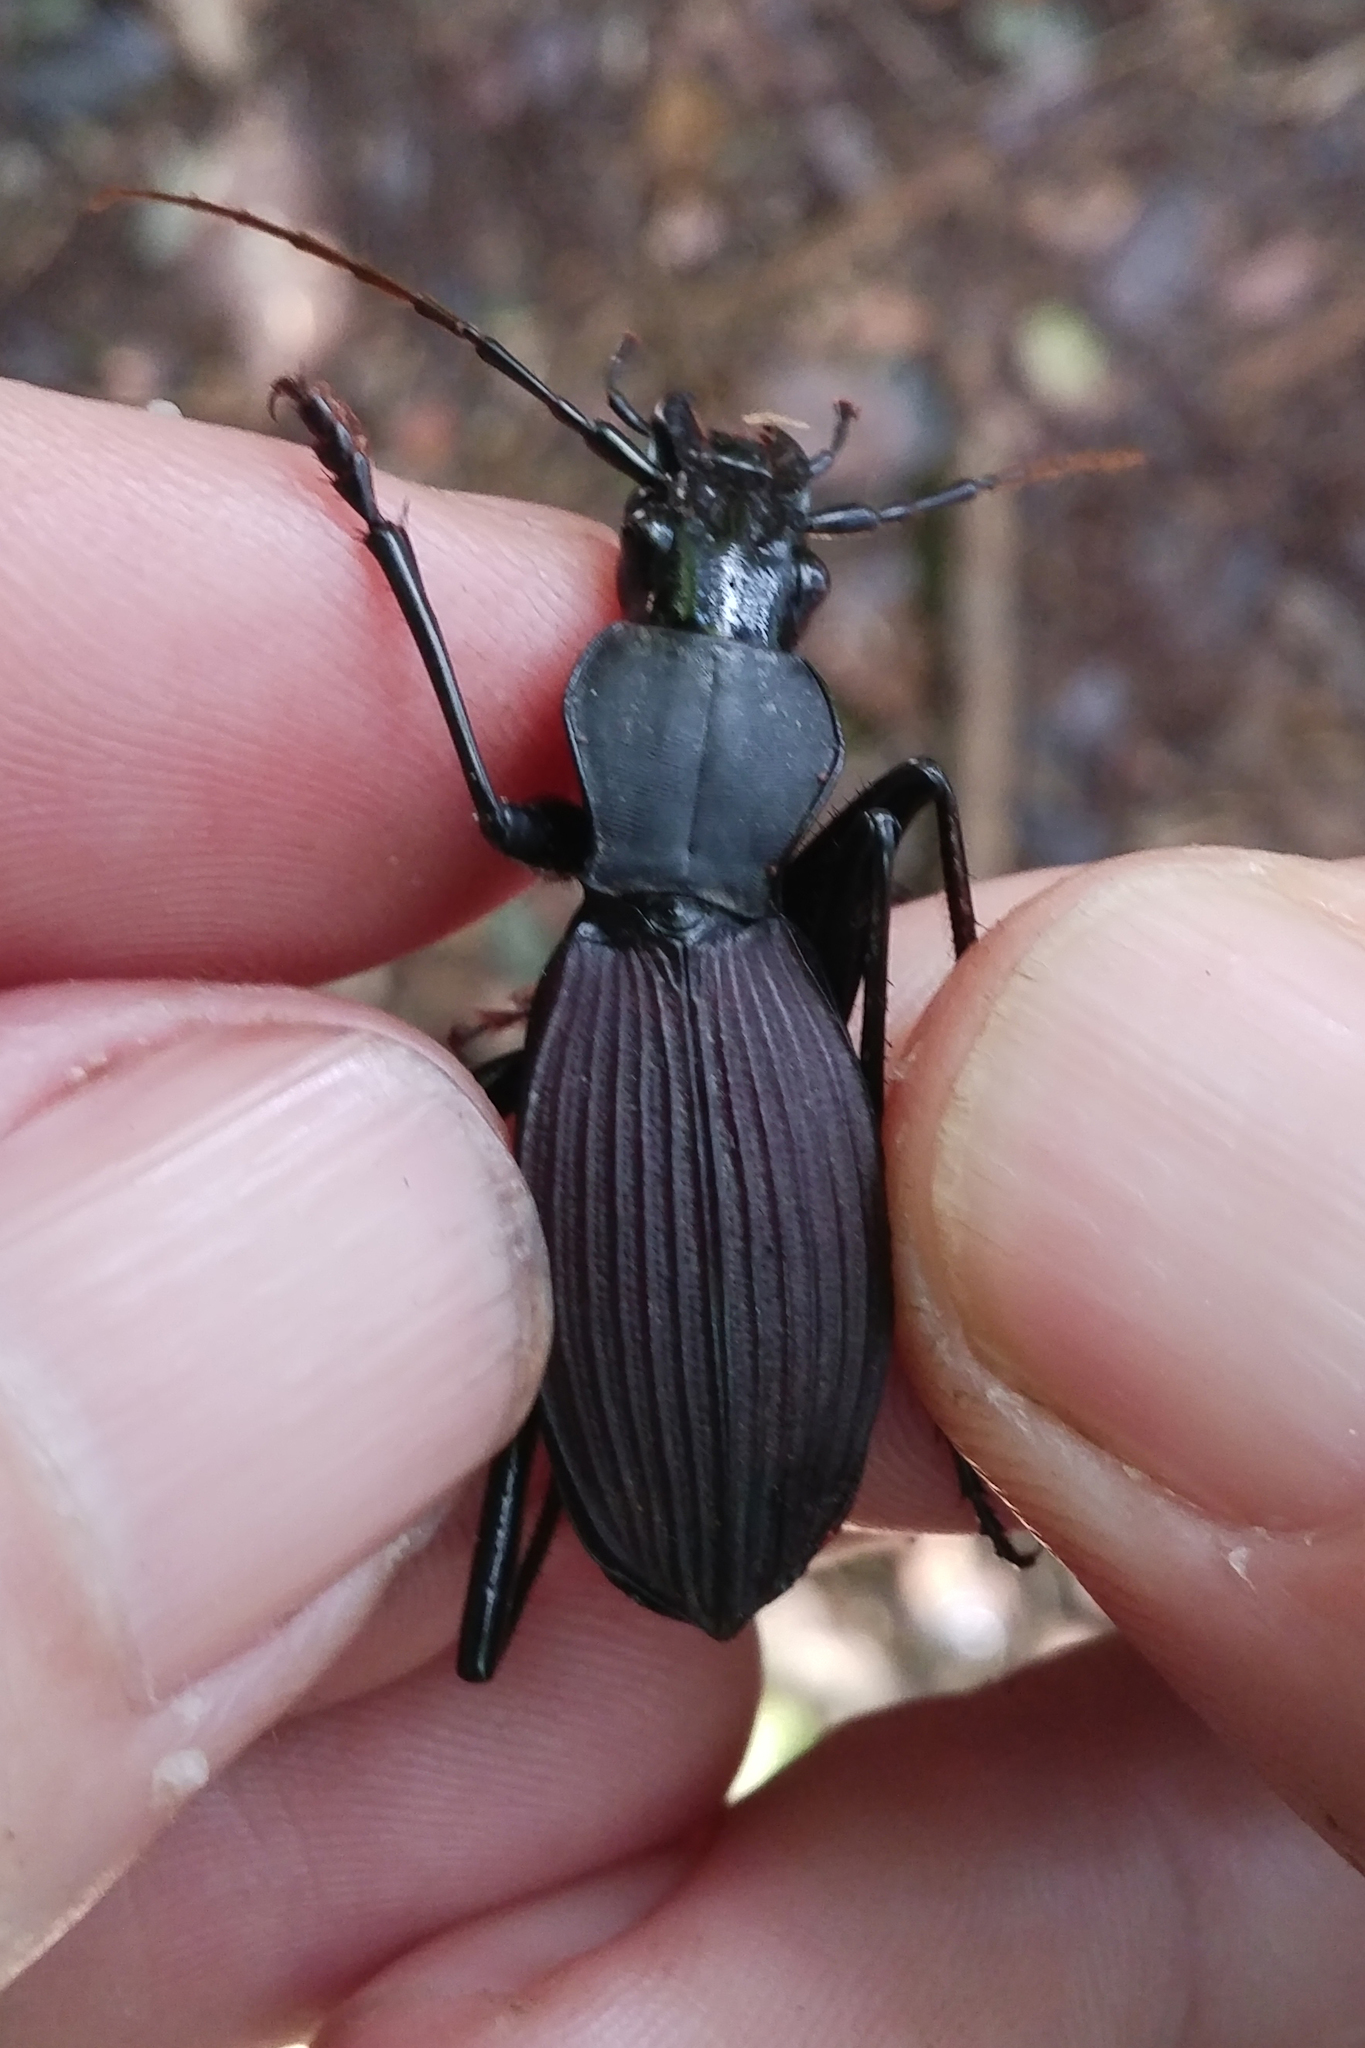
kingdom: Animalia
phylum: Arthropoda
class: Insecta
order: Coleoptera
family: Carabidae
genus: Eudromus
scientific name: Eudromus striaticollis
